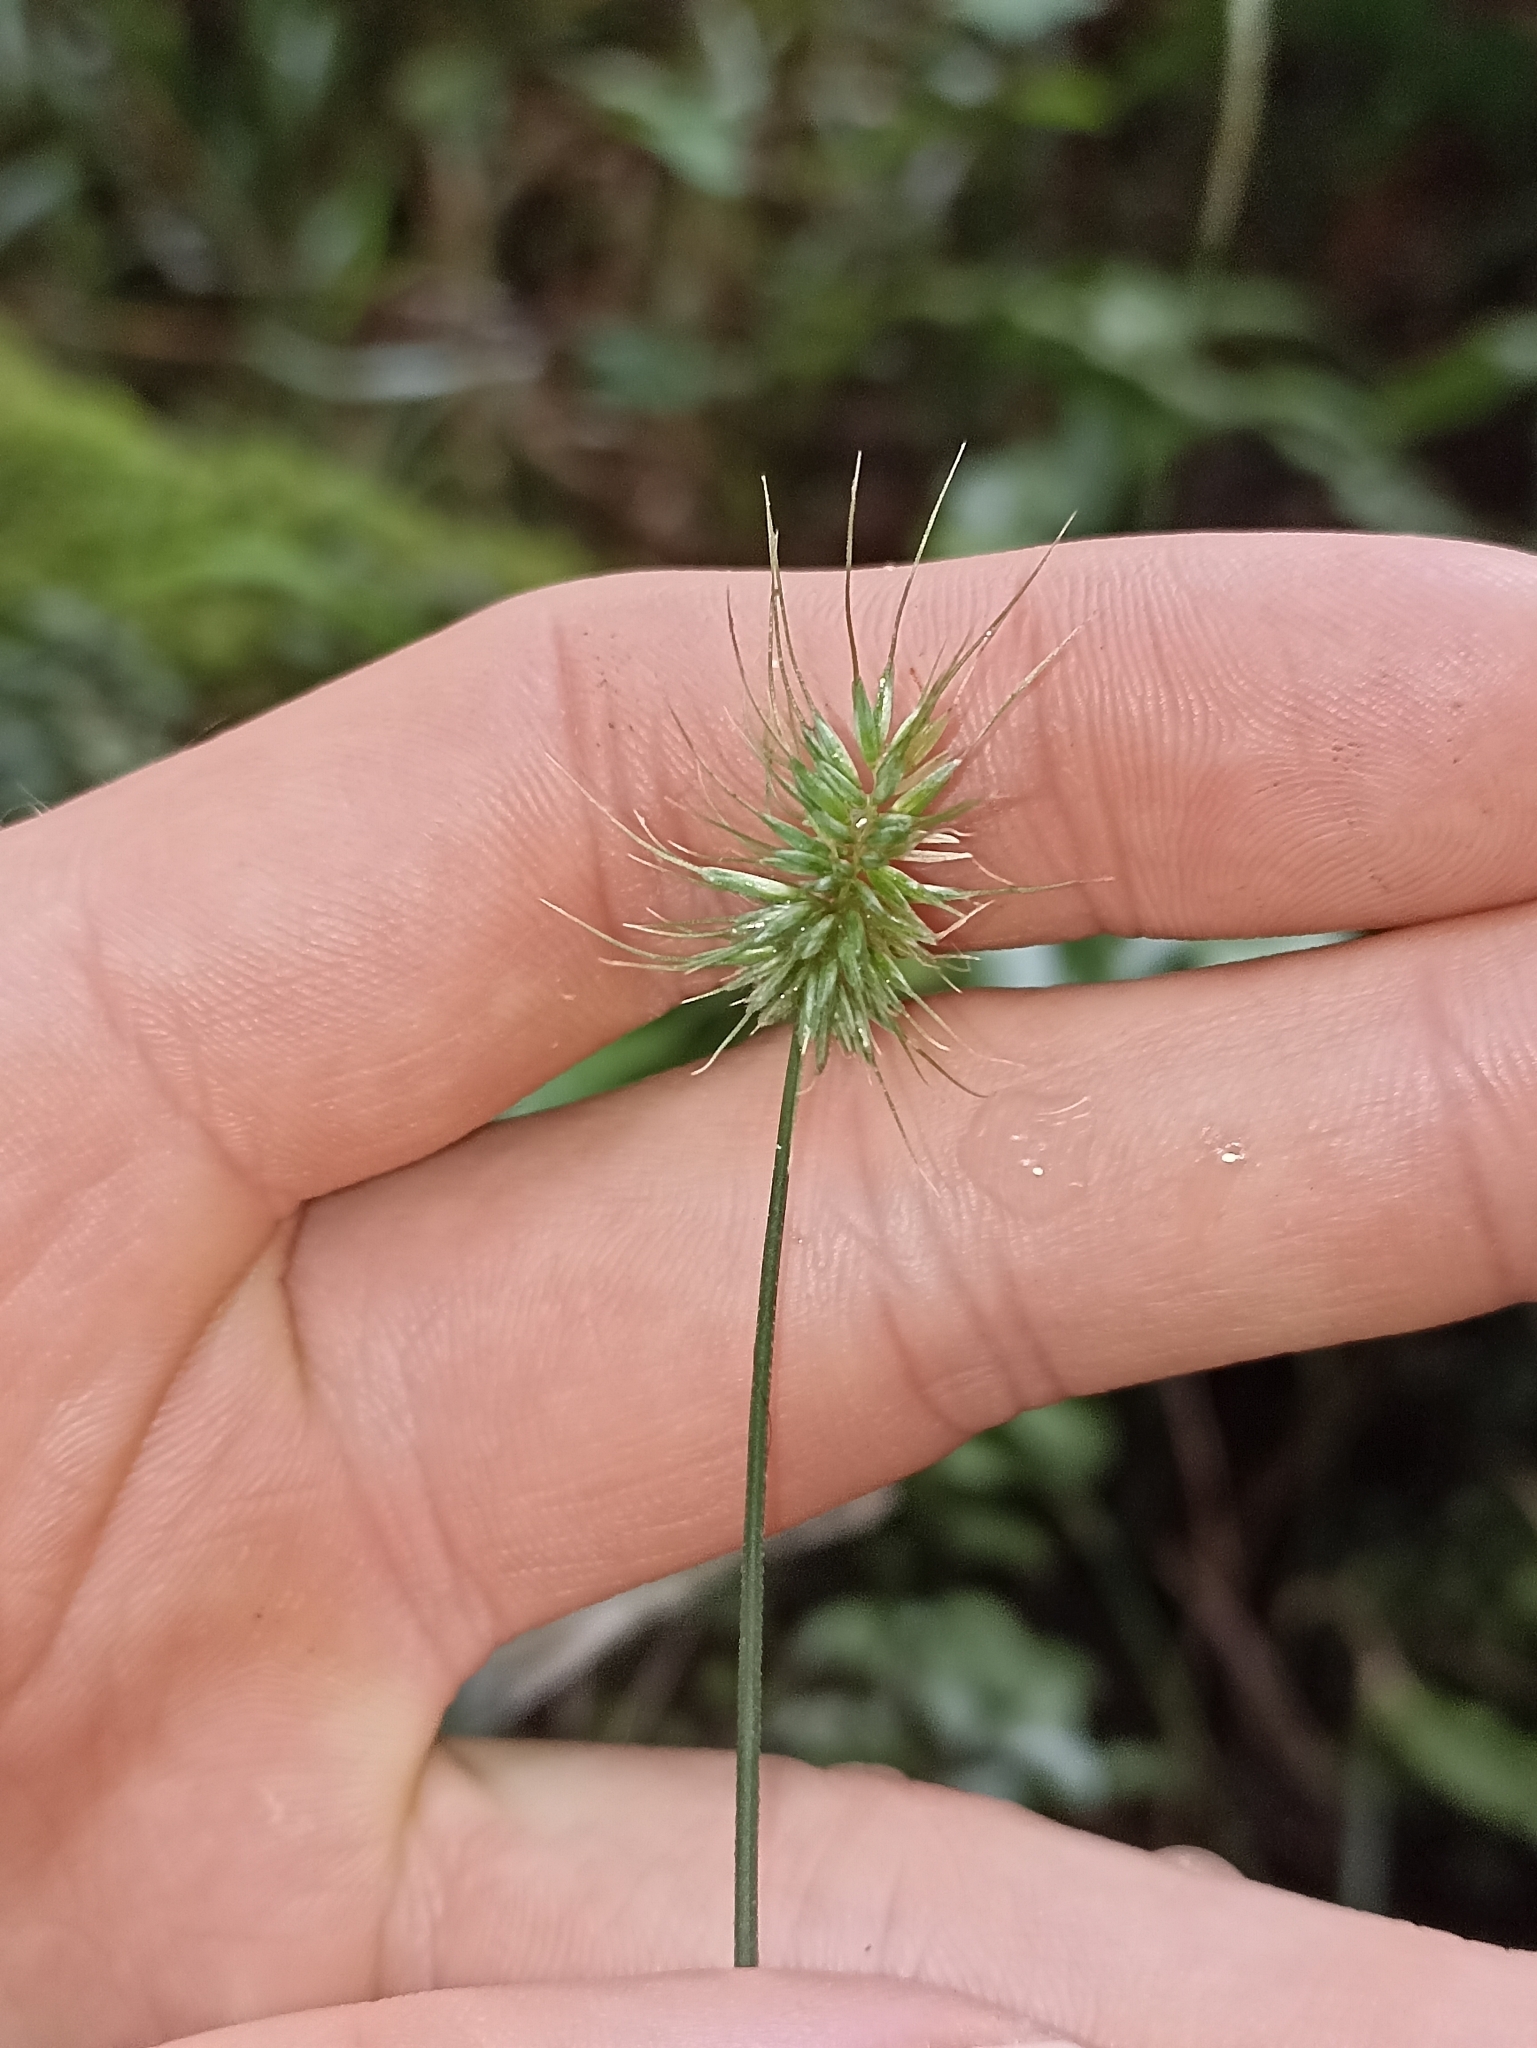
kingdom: Plantae
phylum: Tracheophyta
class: Liliopsida
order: Poales
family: Poaceae
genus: Echinopogon
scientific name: Echinopogon ovatus
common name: Hedgehog-grass
